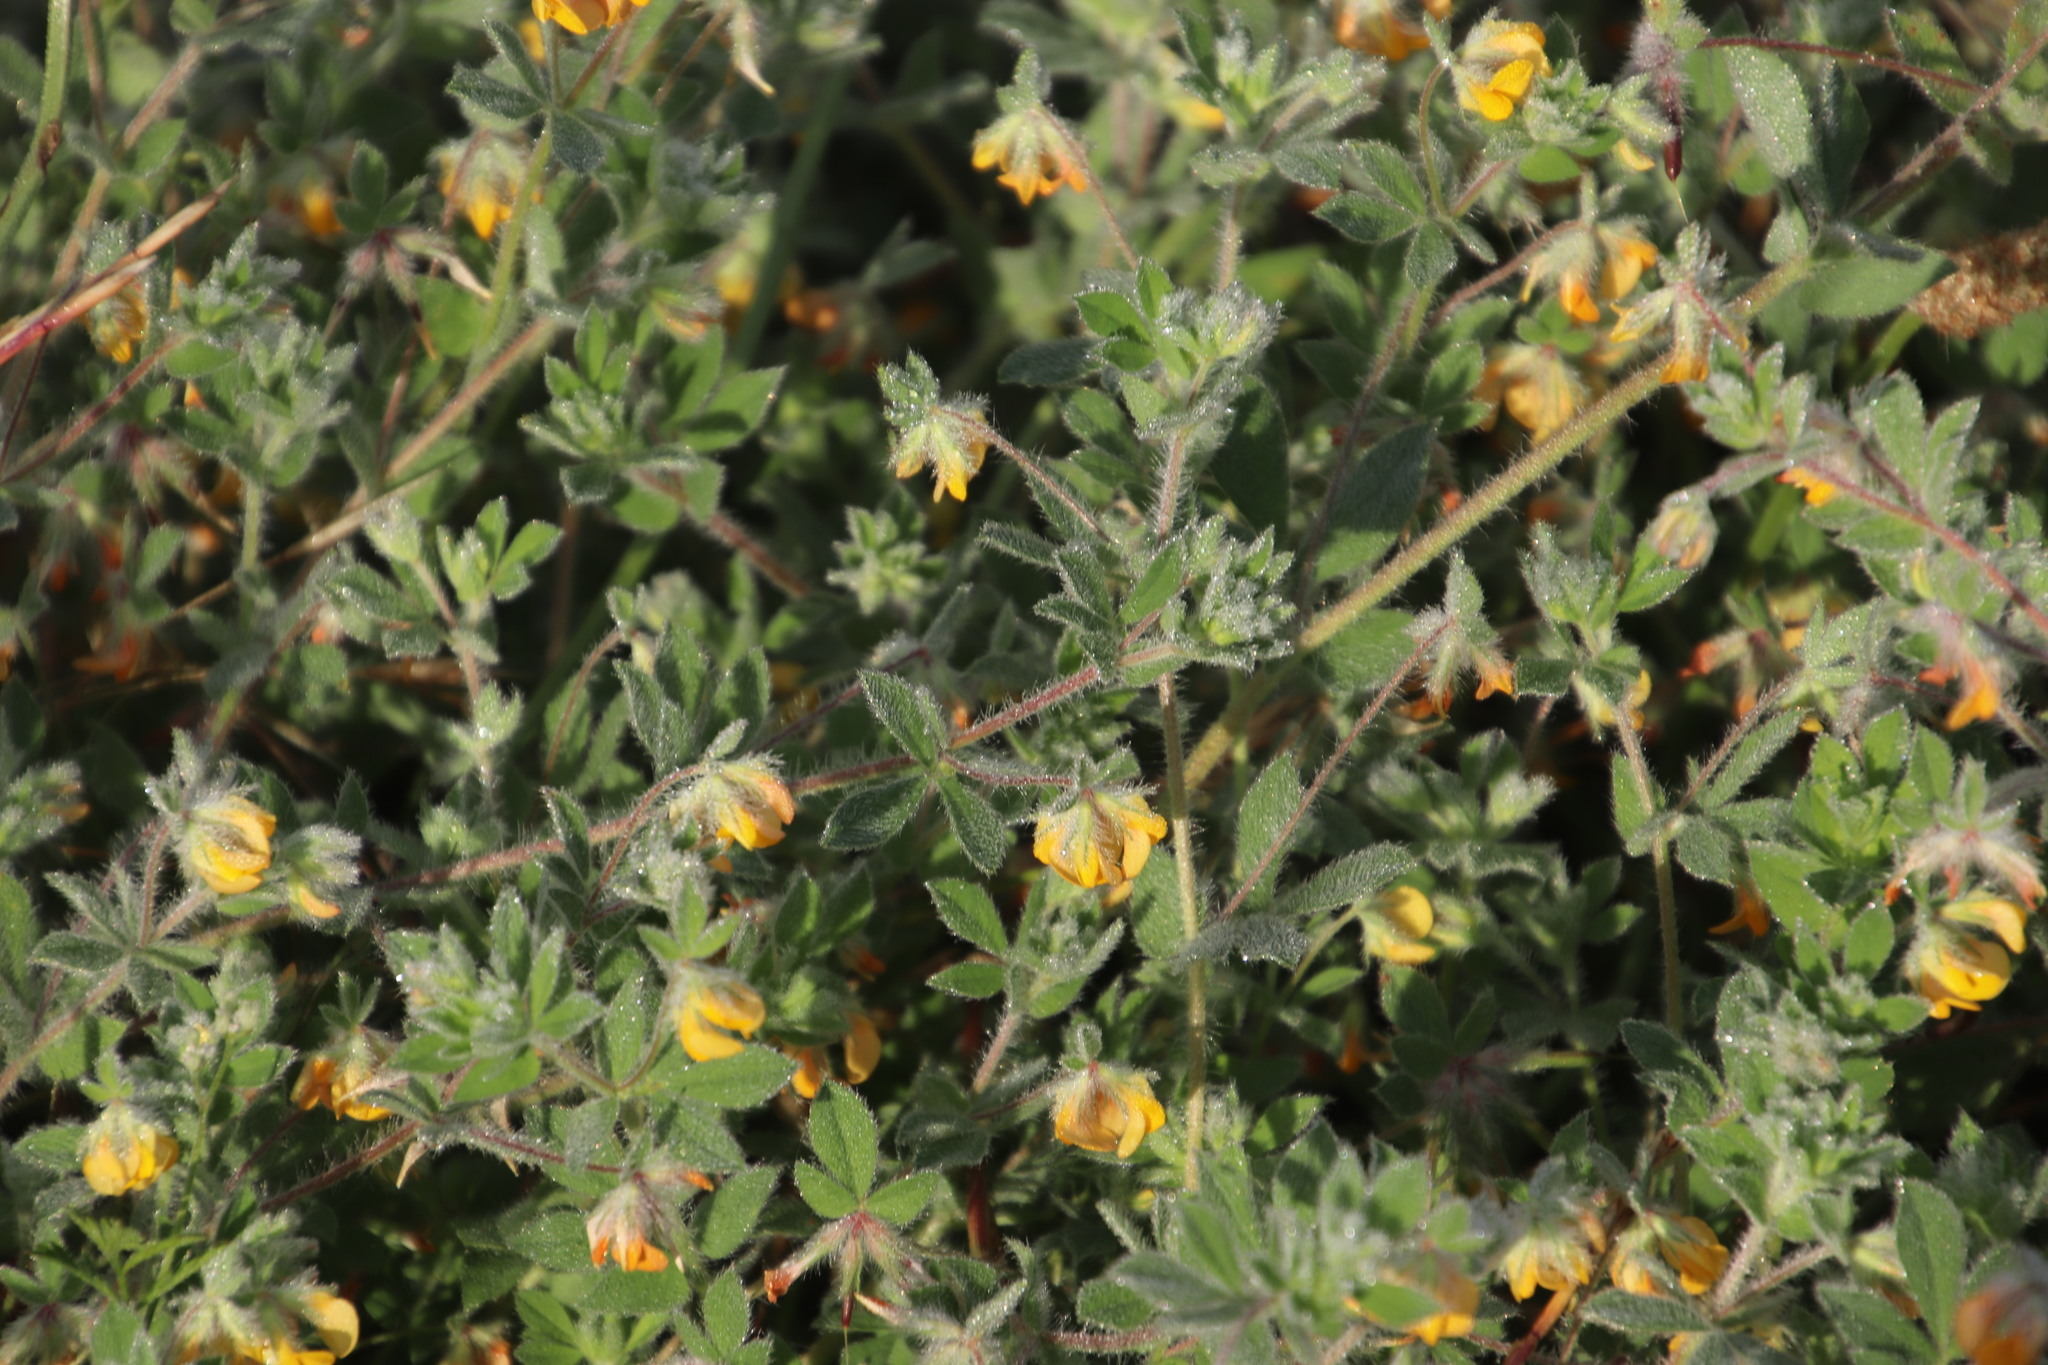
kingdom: Plantae
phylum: Tracheophyta
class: Magnoliopsida
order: Fabales
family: Fabaceae
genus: Lotus
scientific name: Lotus subbiflorus
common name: Hairy bird's-foot trefoil
